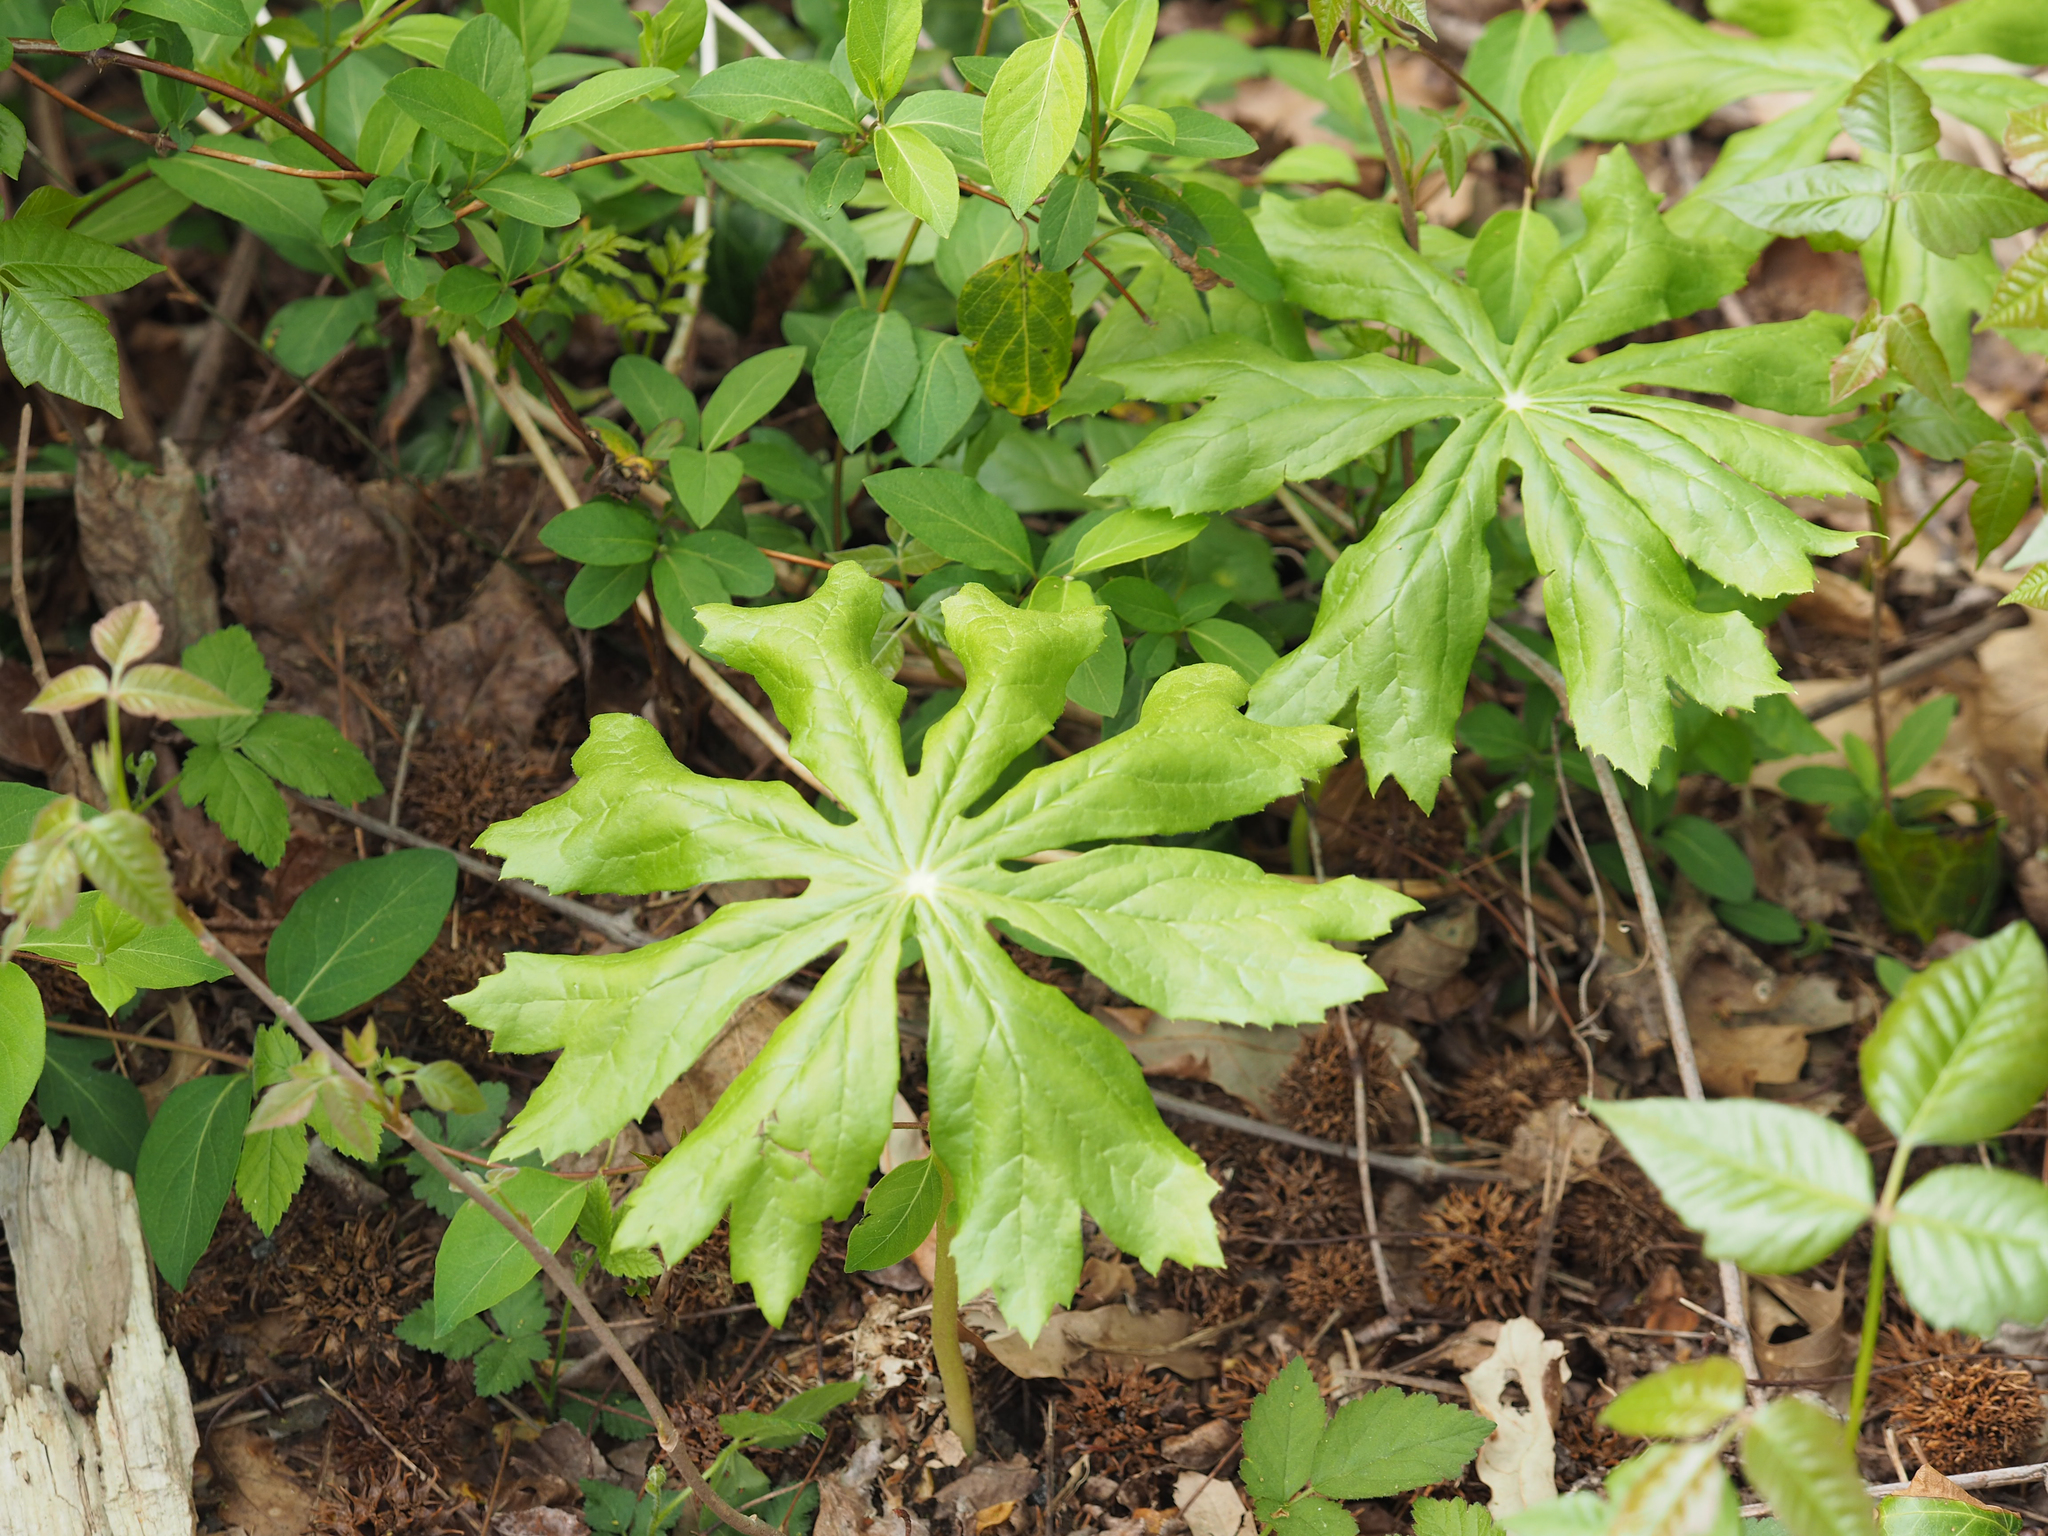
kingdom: Plantae
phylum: Tracheophyta
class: Magnoliopsida
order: Ranunculales
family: Berberidaceae
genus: Podophyllum
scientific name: Podophyllum peltatum
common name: Wild mandrake
